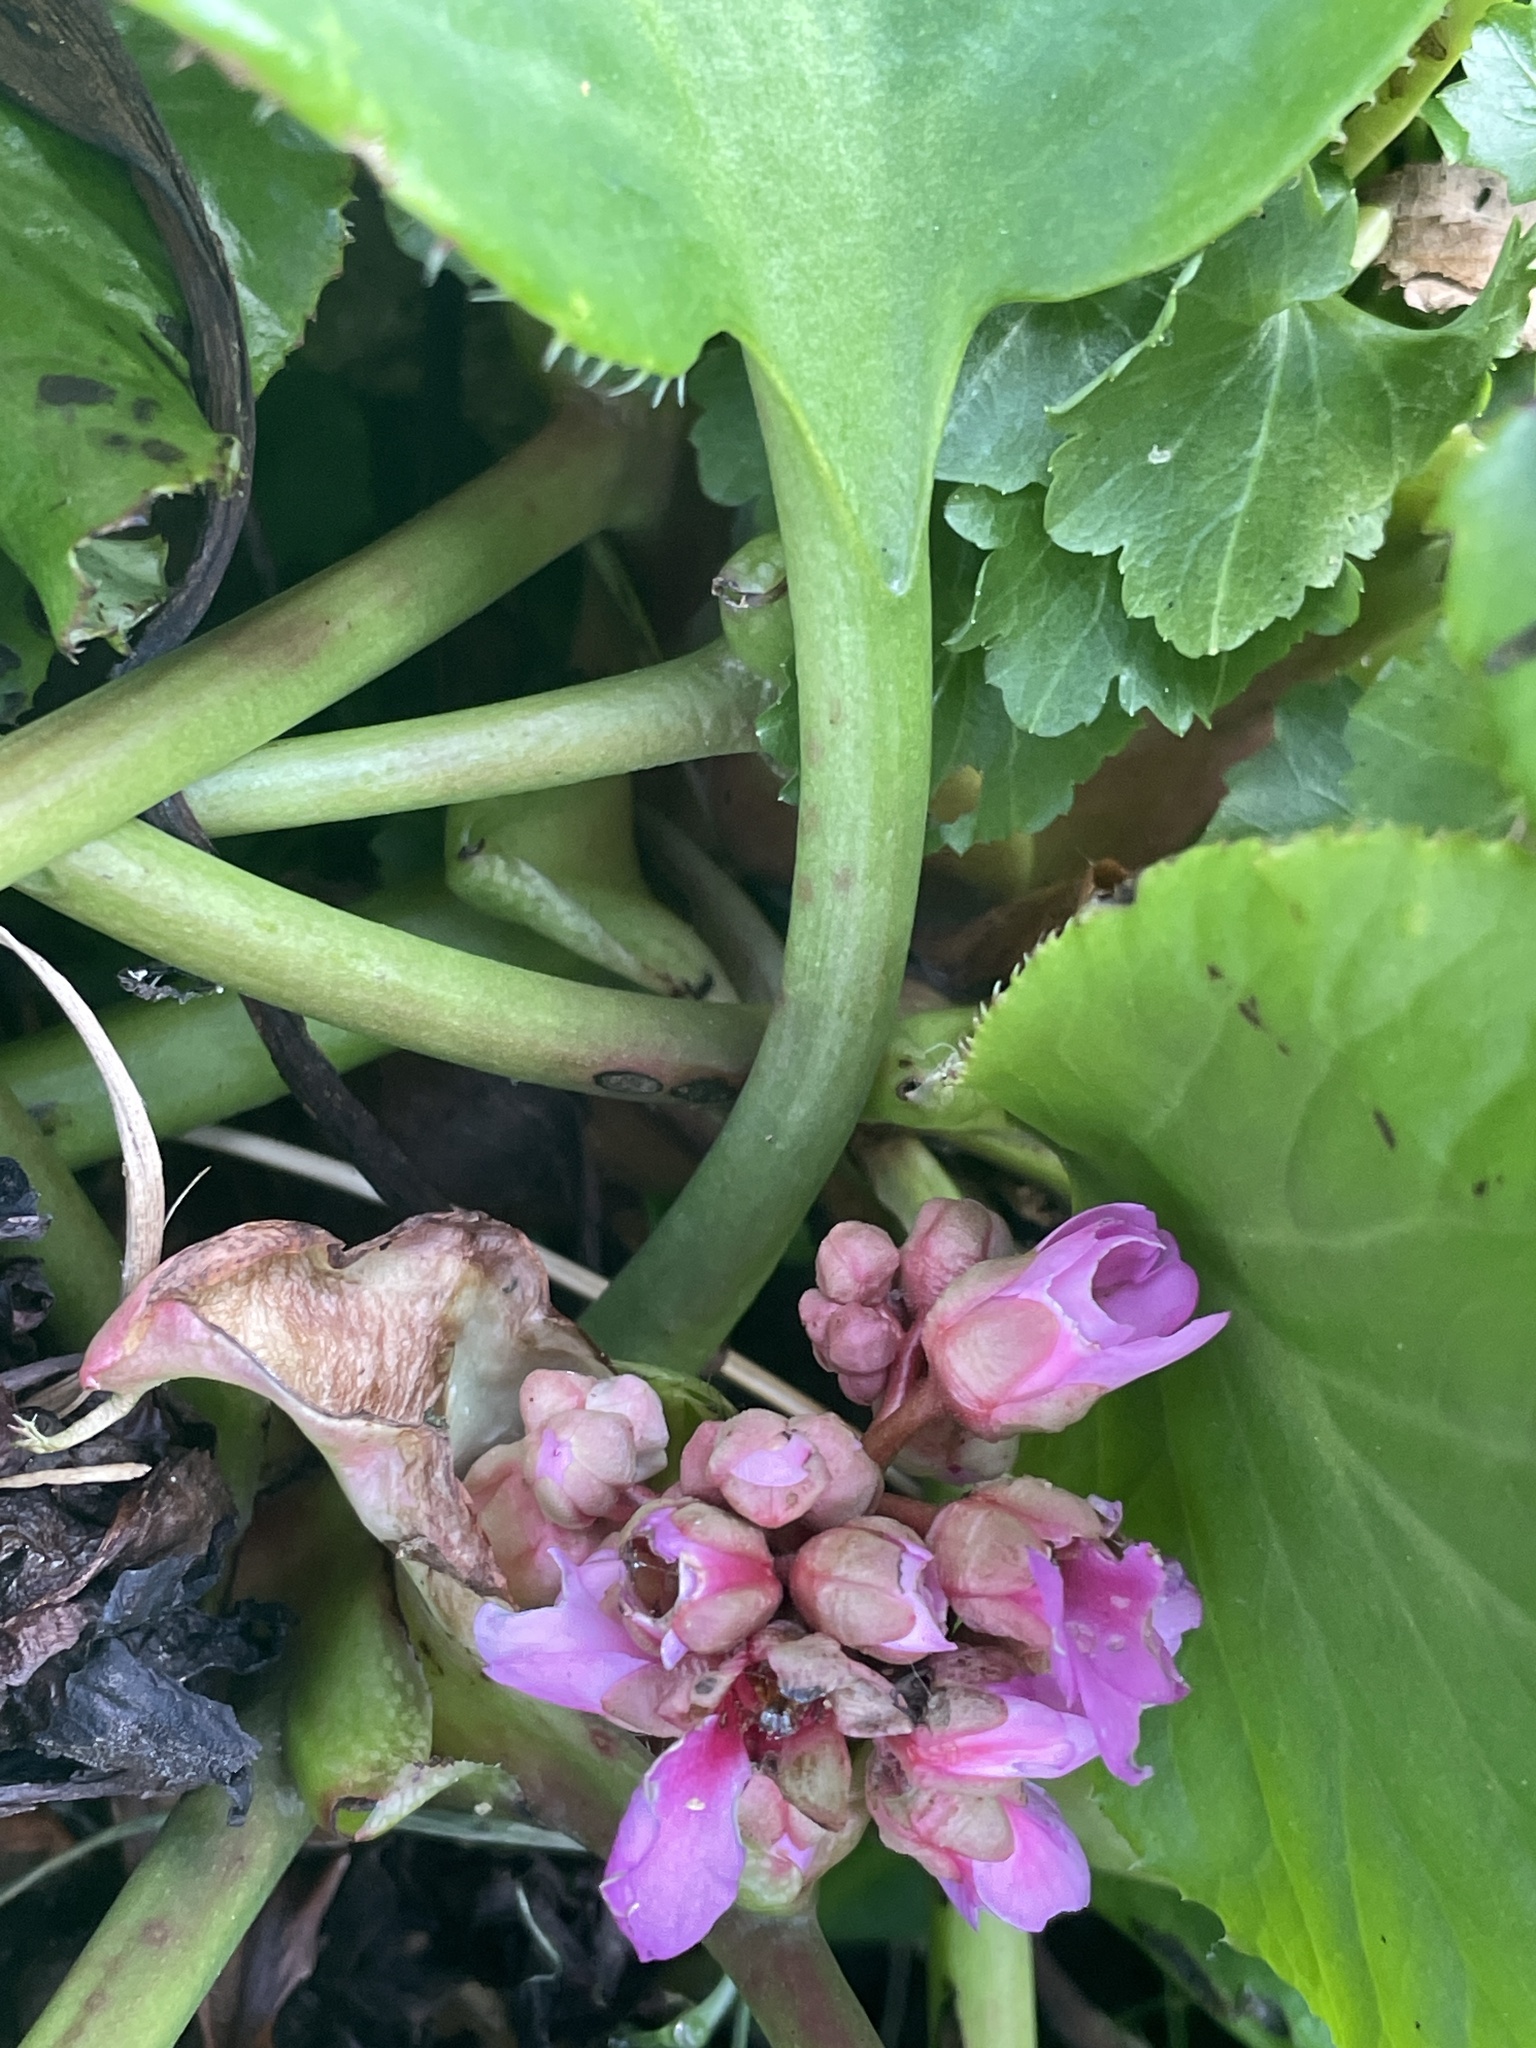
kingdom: Plantae
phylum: Tracheophyta
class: Magnoliopsida
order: Saxifragales
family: Saxifragaceae
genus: Bergenia
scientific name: Bergenia crassifolia
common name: Elephant-ears
